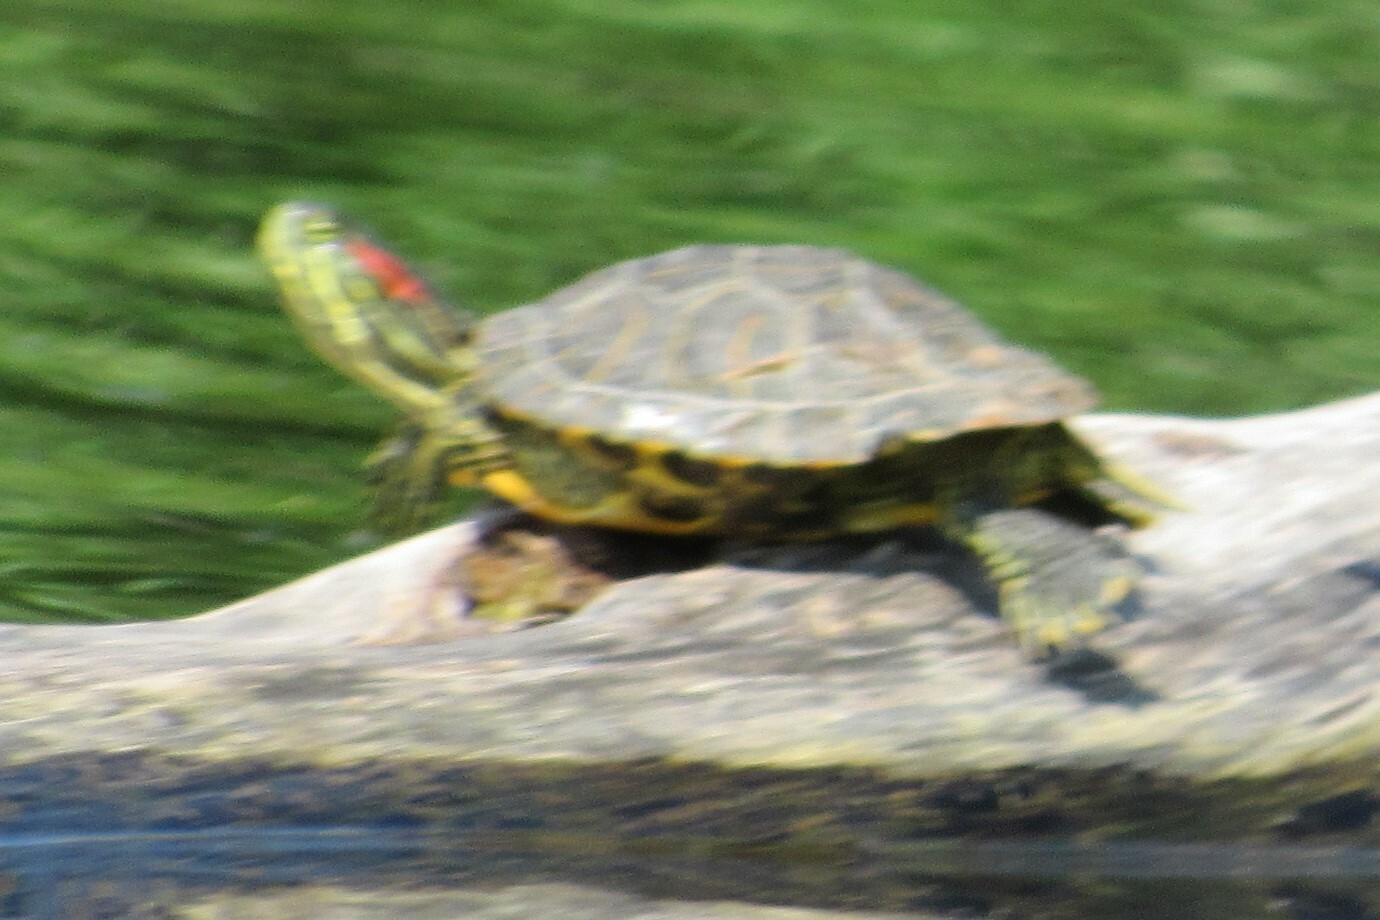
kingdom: Animalia
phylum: Chordata
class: Testudines
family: Emydidae
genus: Trachemys
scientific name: Trachemys scripta
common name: Slider
